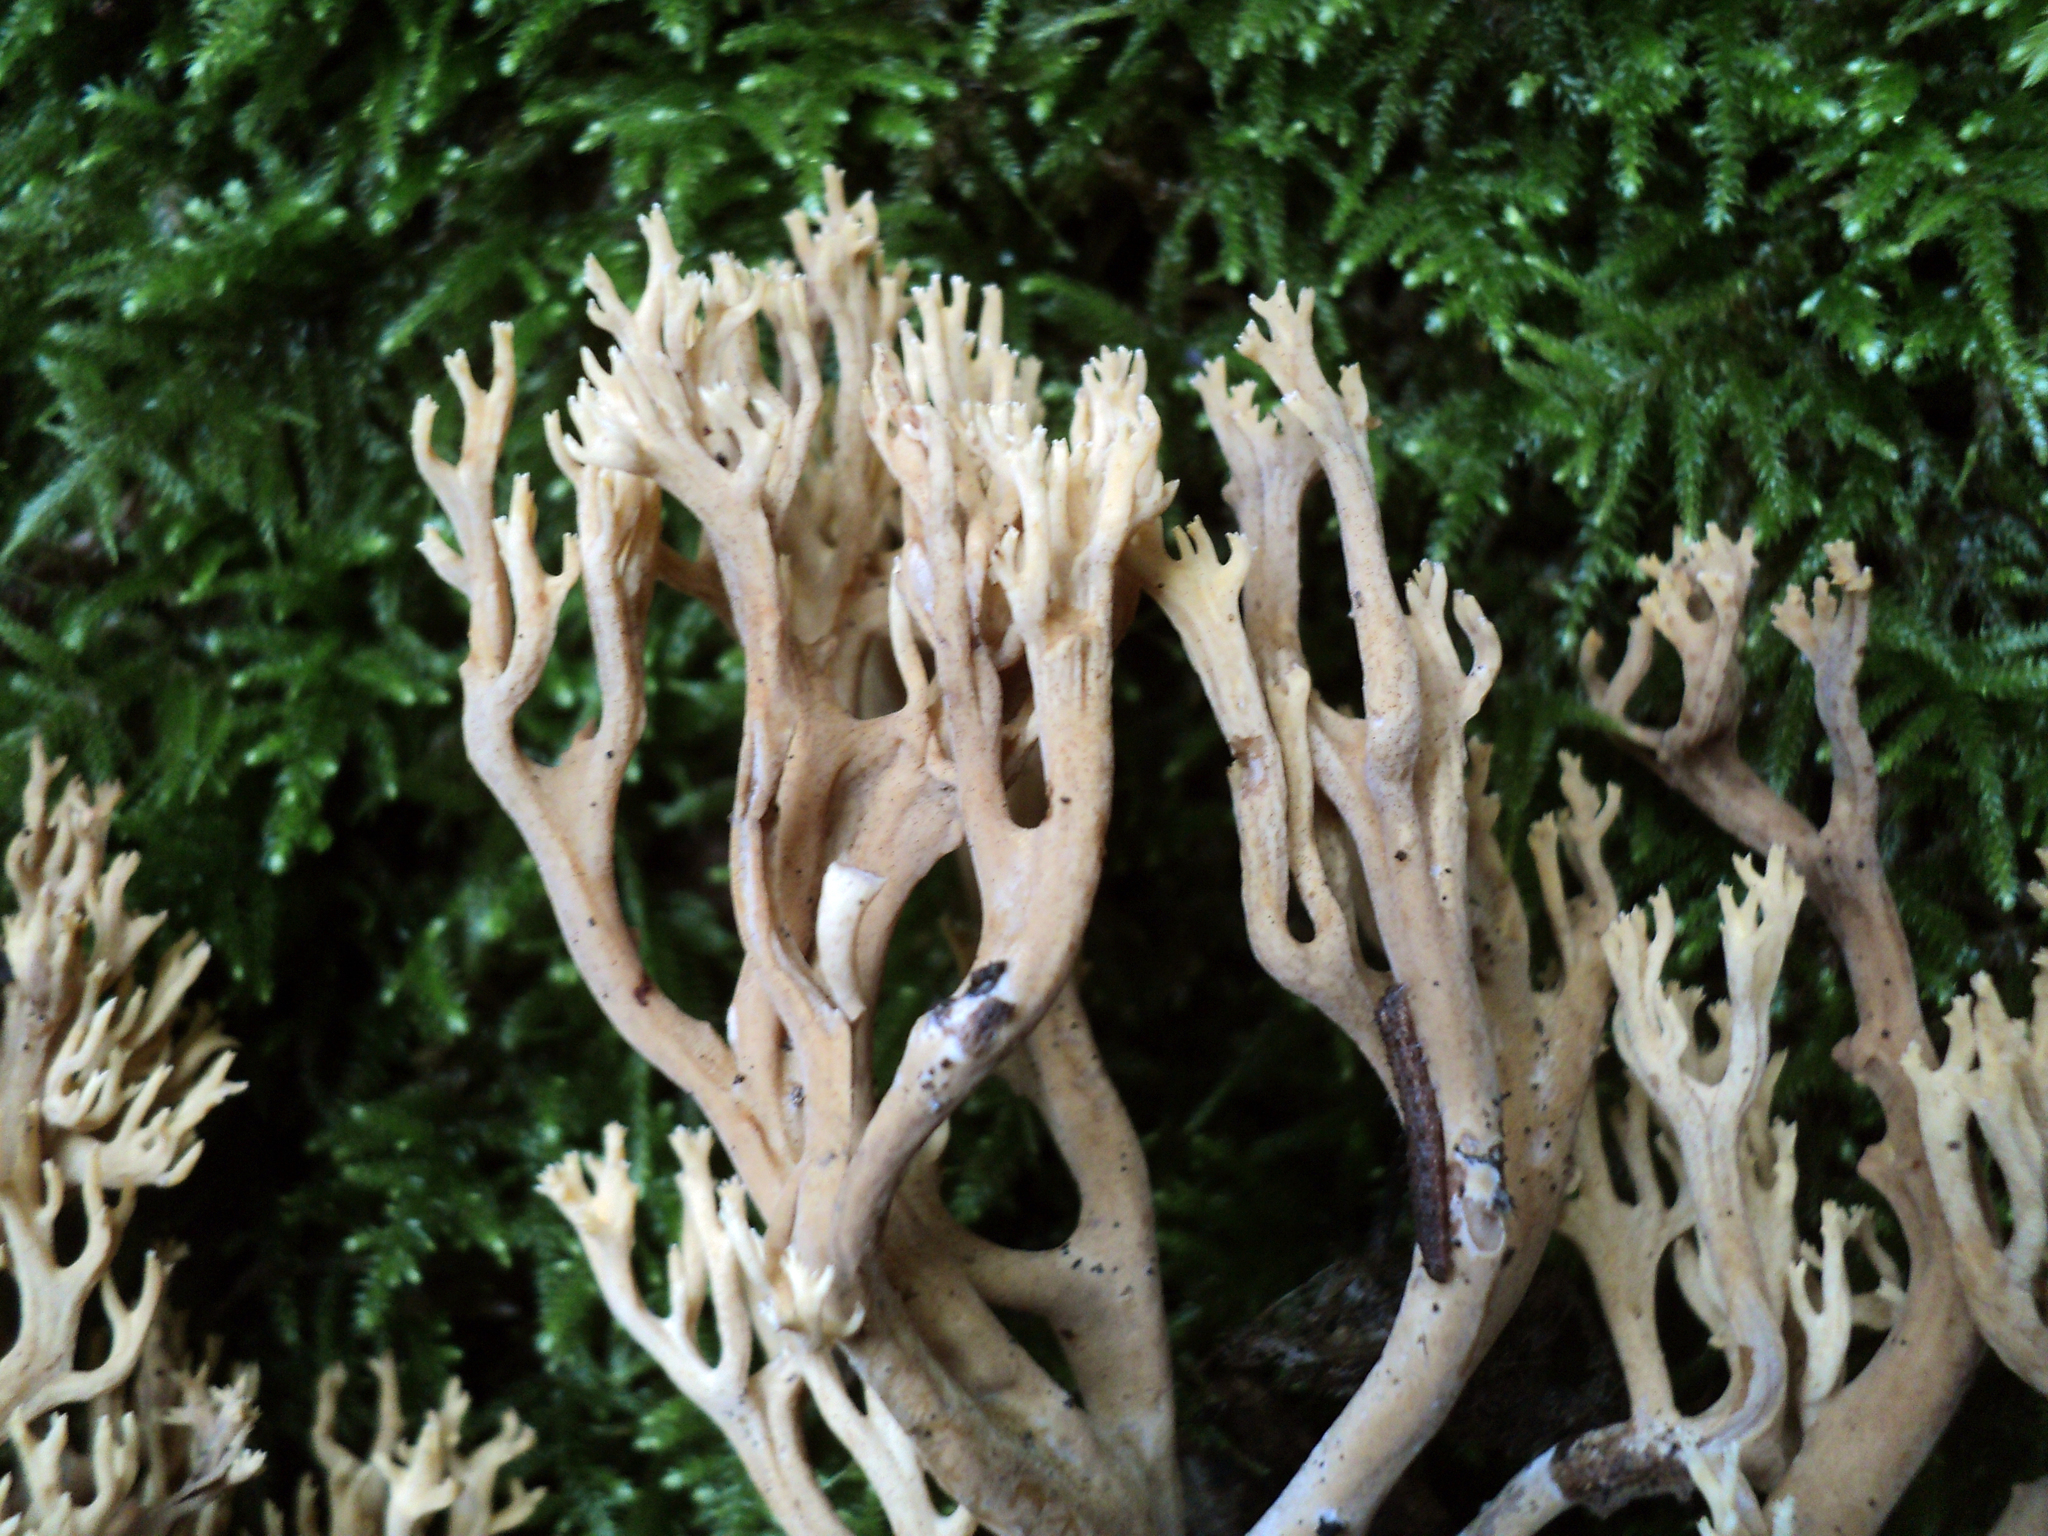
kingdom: Fungi
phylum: Basidiomycota
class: Agaricomycetes
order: Gomphales
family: Gomphaceae
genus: Phaeoclavulina
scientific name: Phaeoclavulina myceliosa
